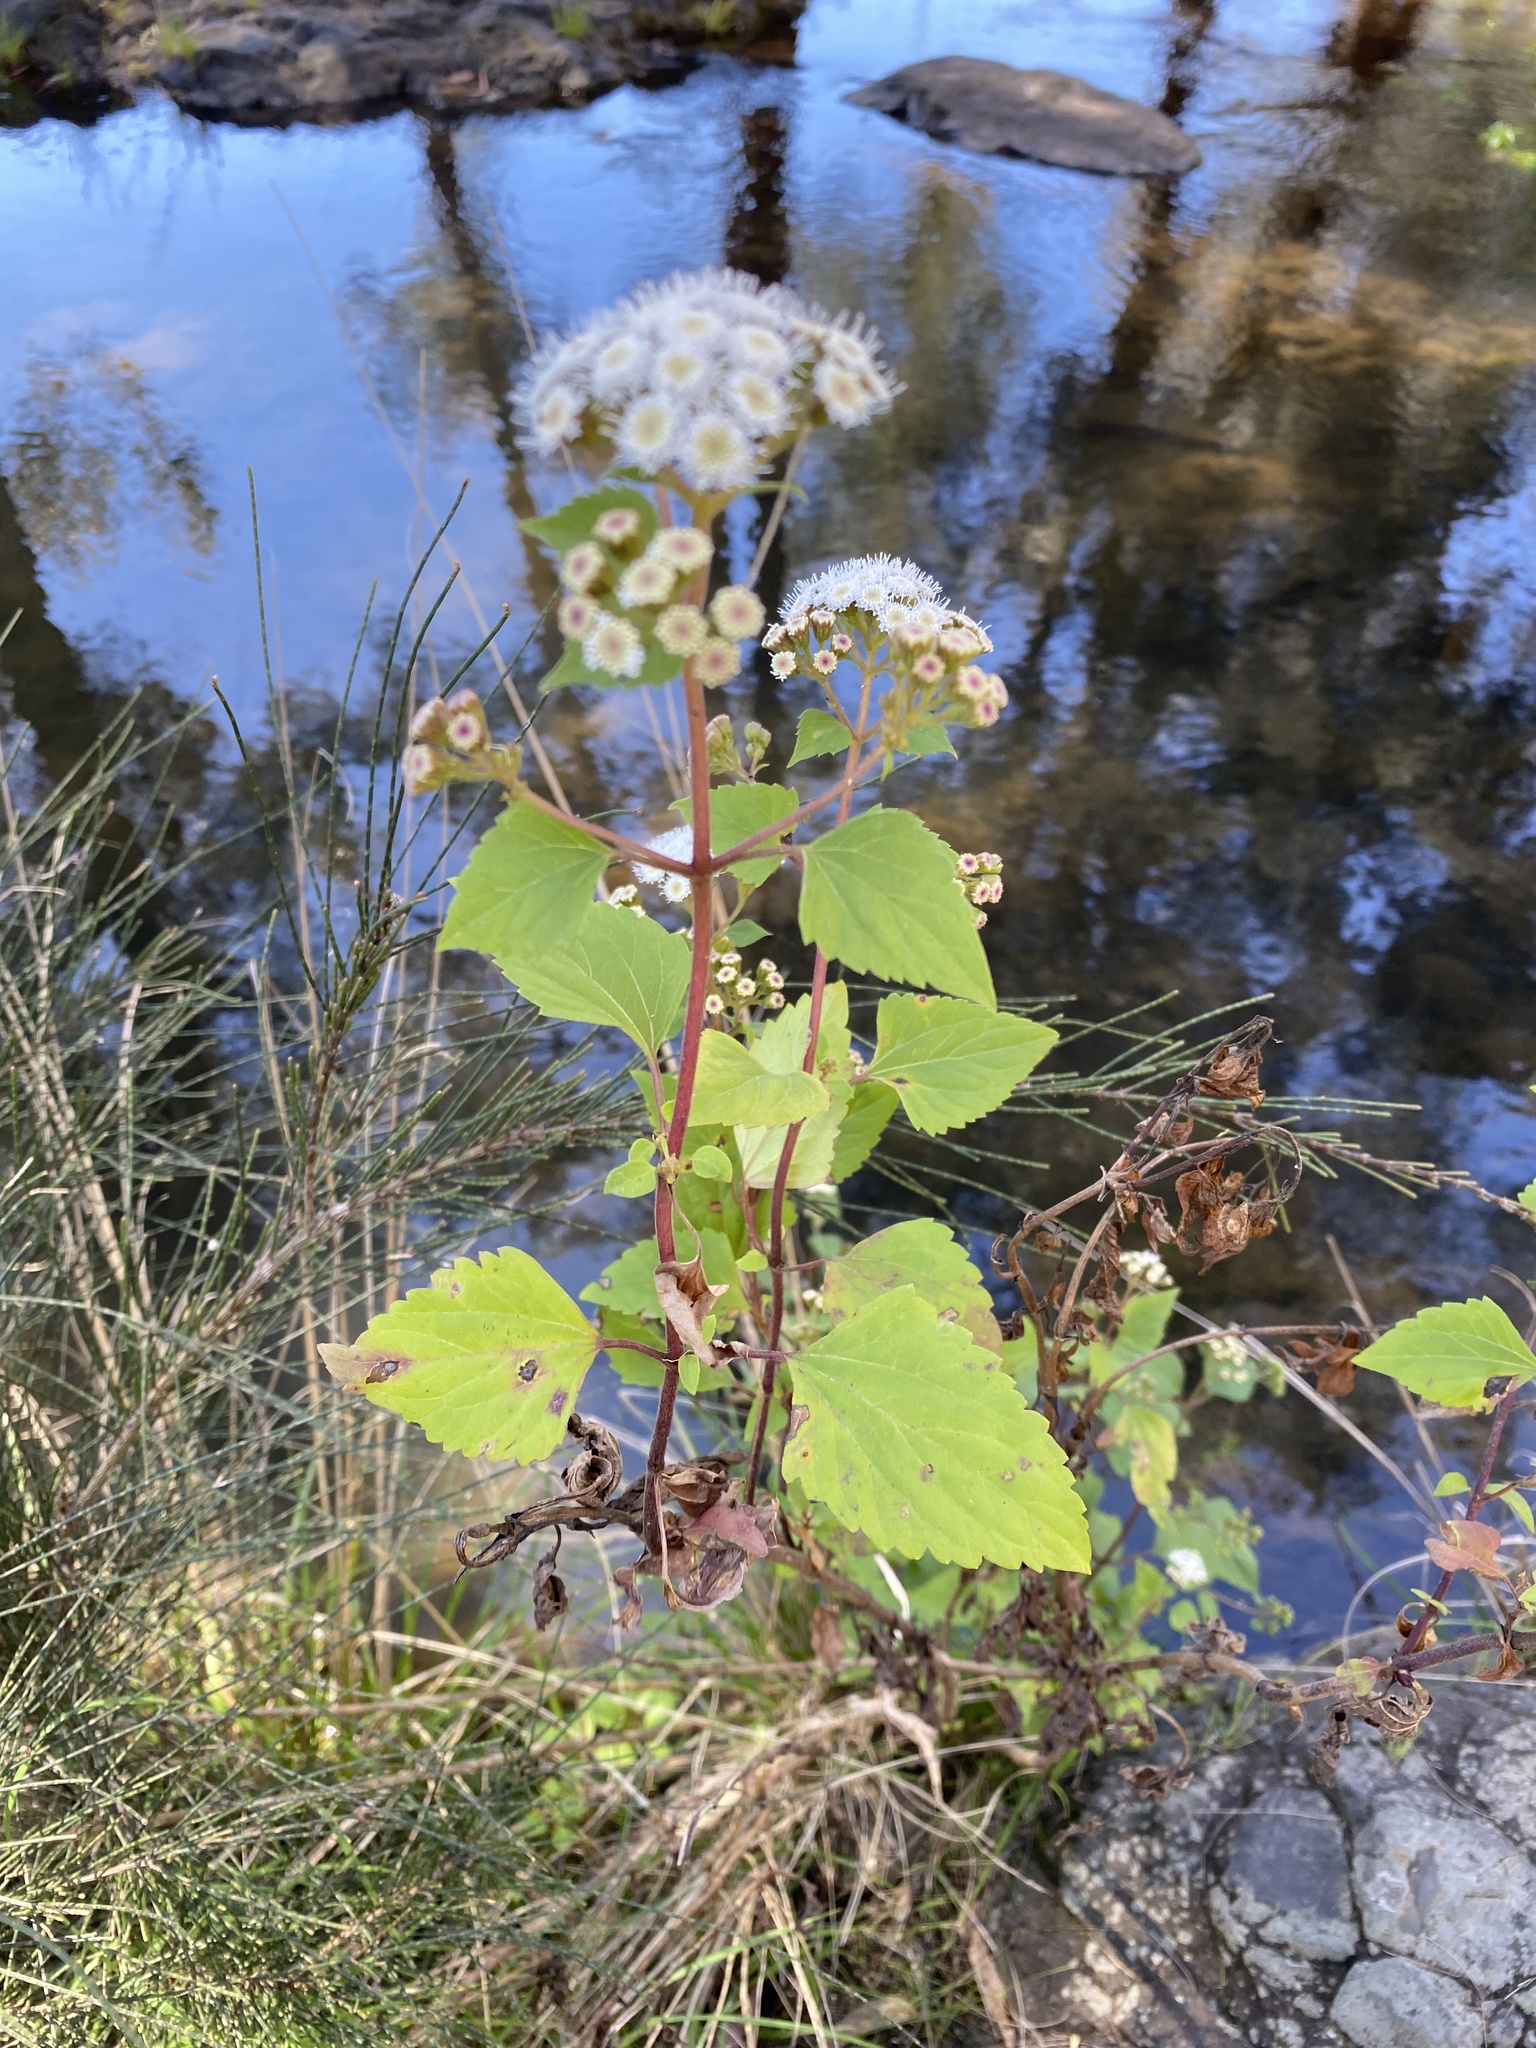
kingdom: Plantae
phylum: Tracheophyta
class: Magnoliopsida
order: Asterales
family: Asteraceae
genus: Ageratina
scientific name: Ageratina adenophora
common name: Sticky snakeroot
